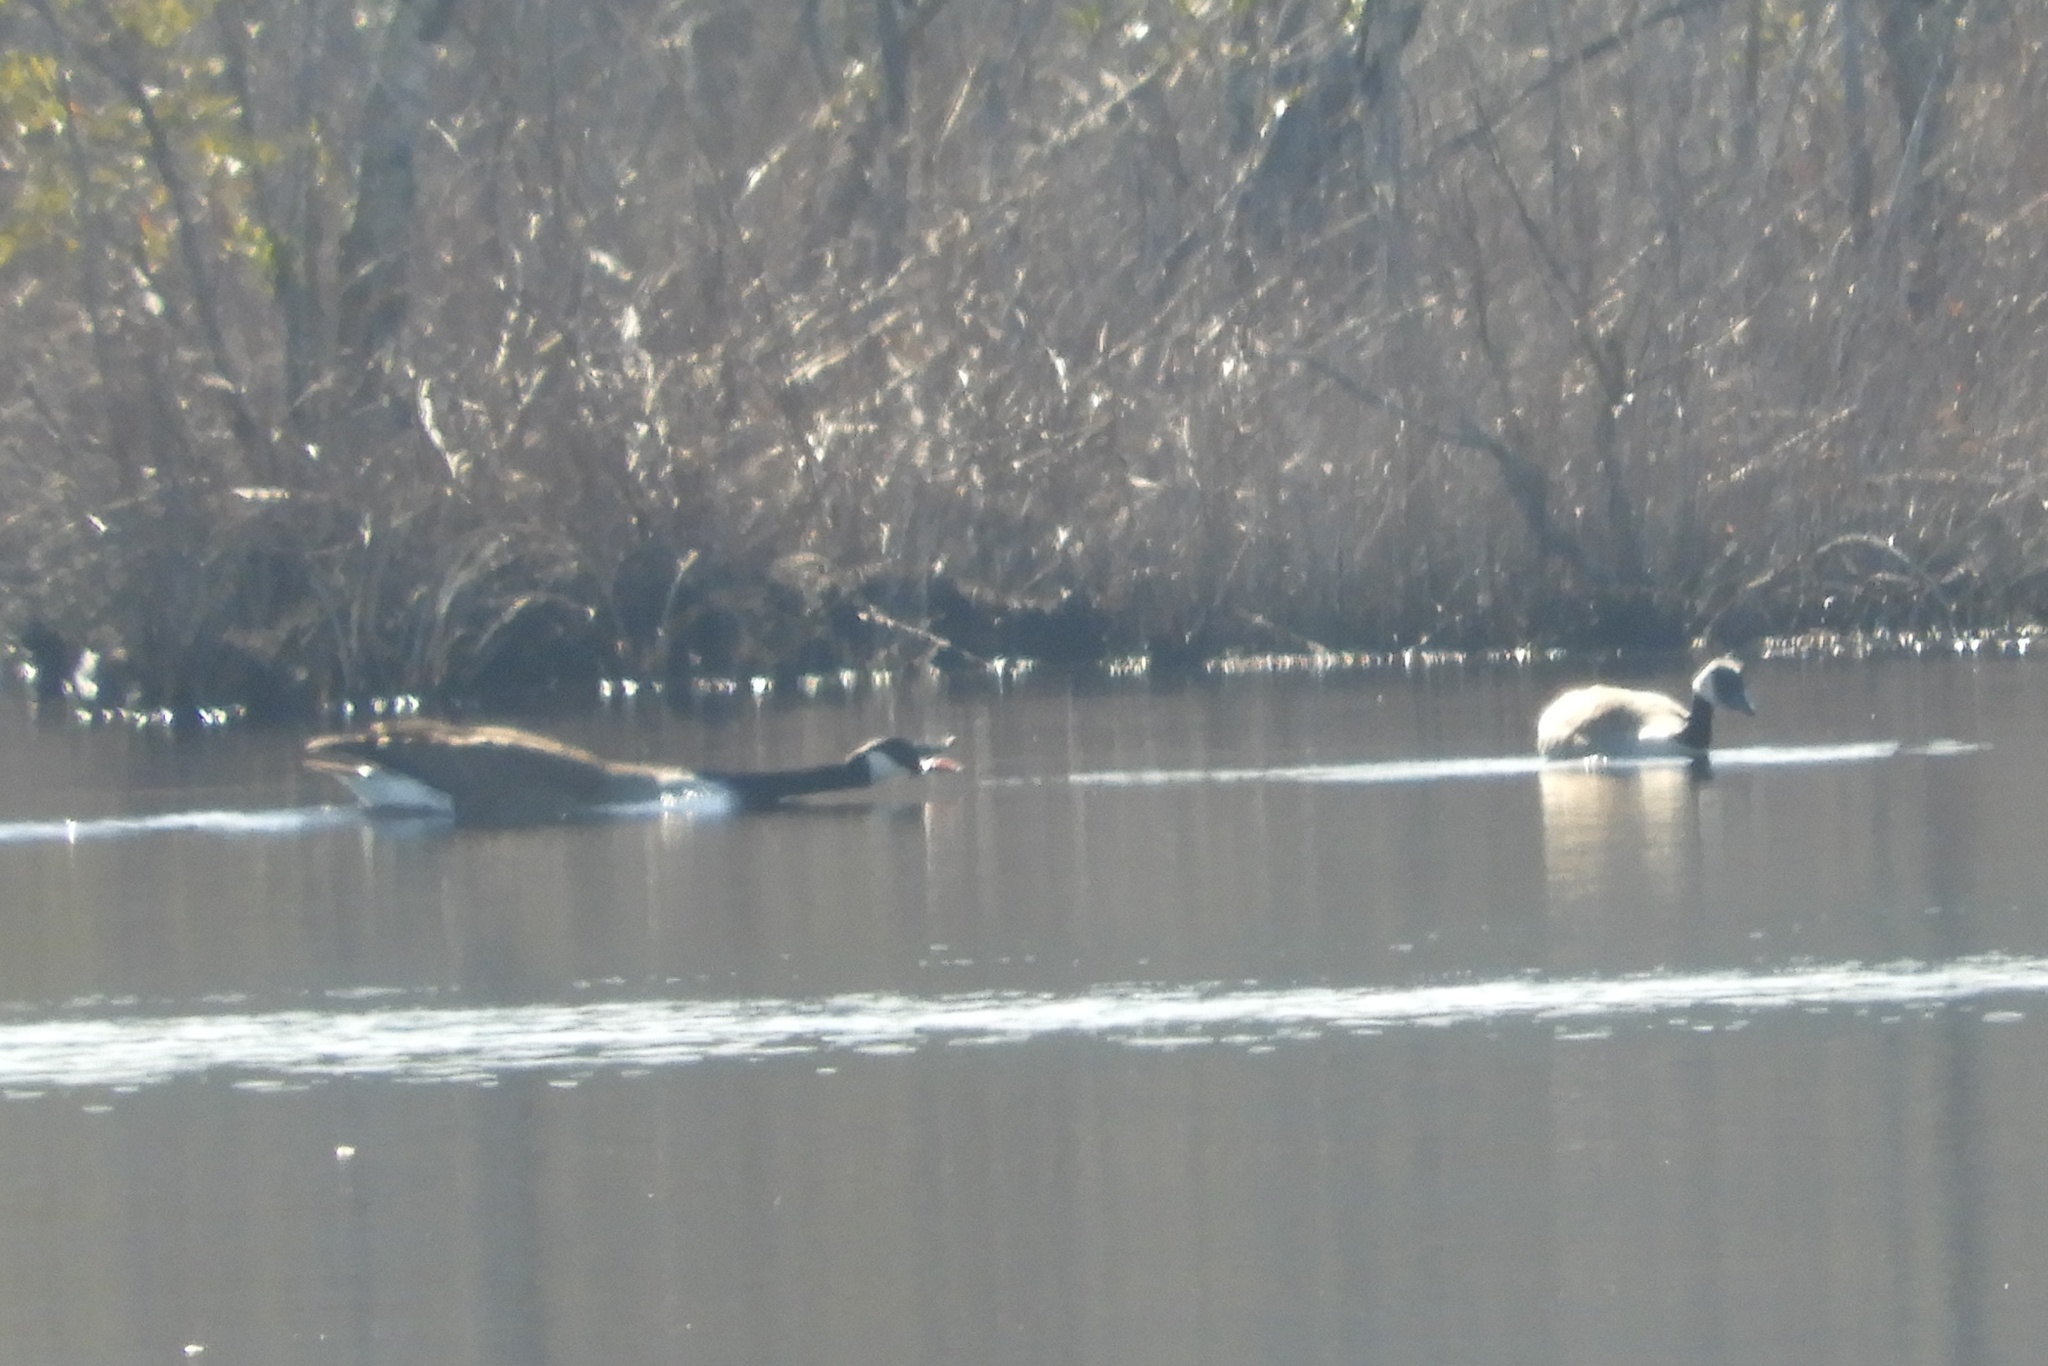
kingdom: Animalia
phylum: Chordata
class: Aves
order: Anseriformes
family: Anatidae
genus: Branta
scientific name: Branta canadensis
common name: Canada goose
